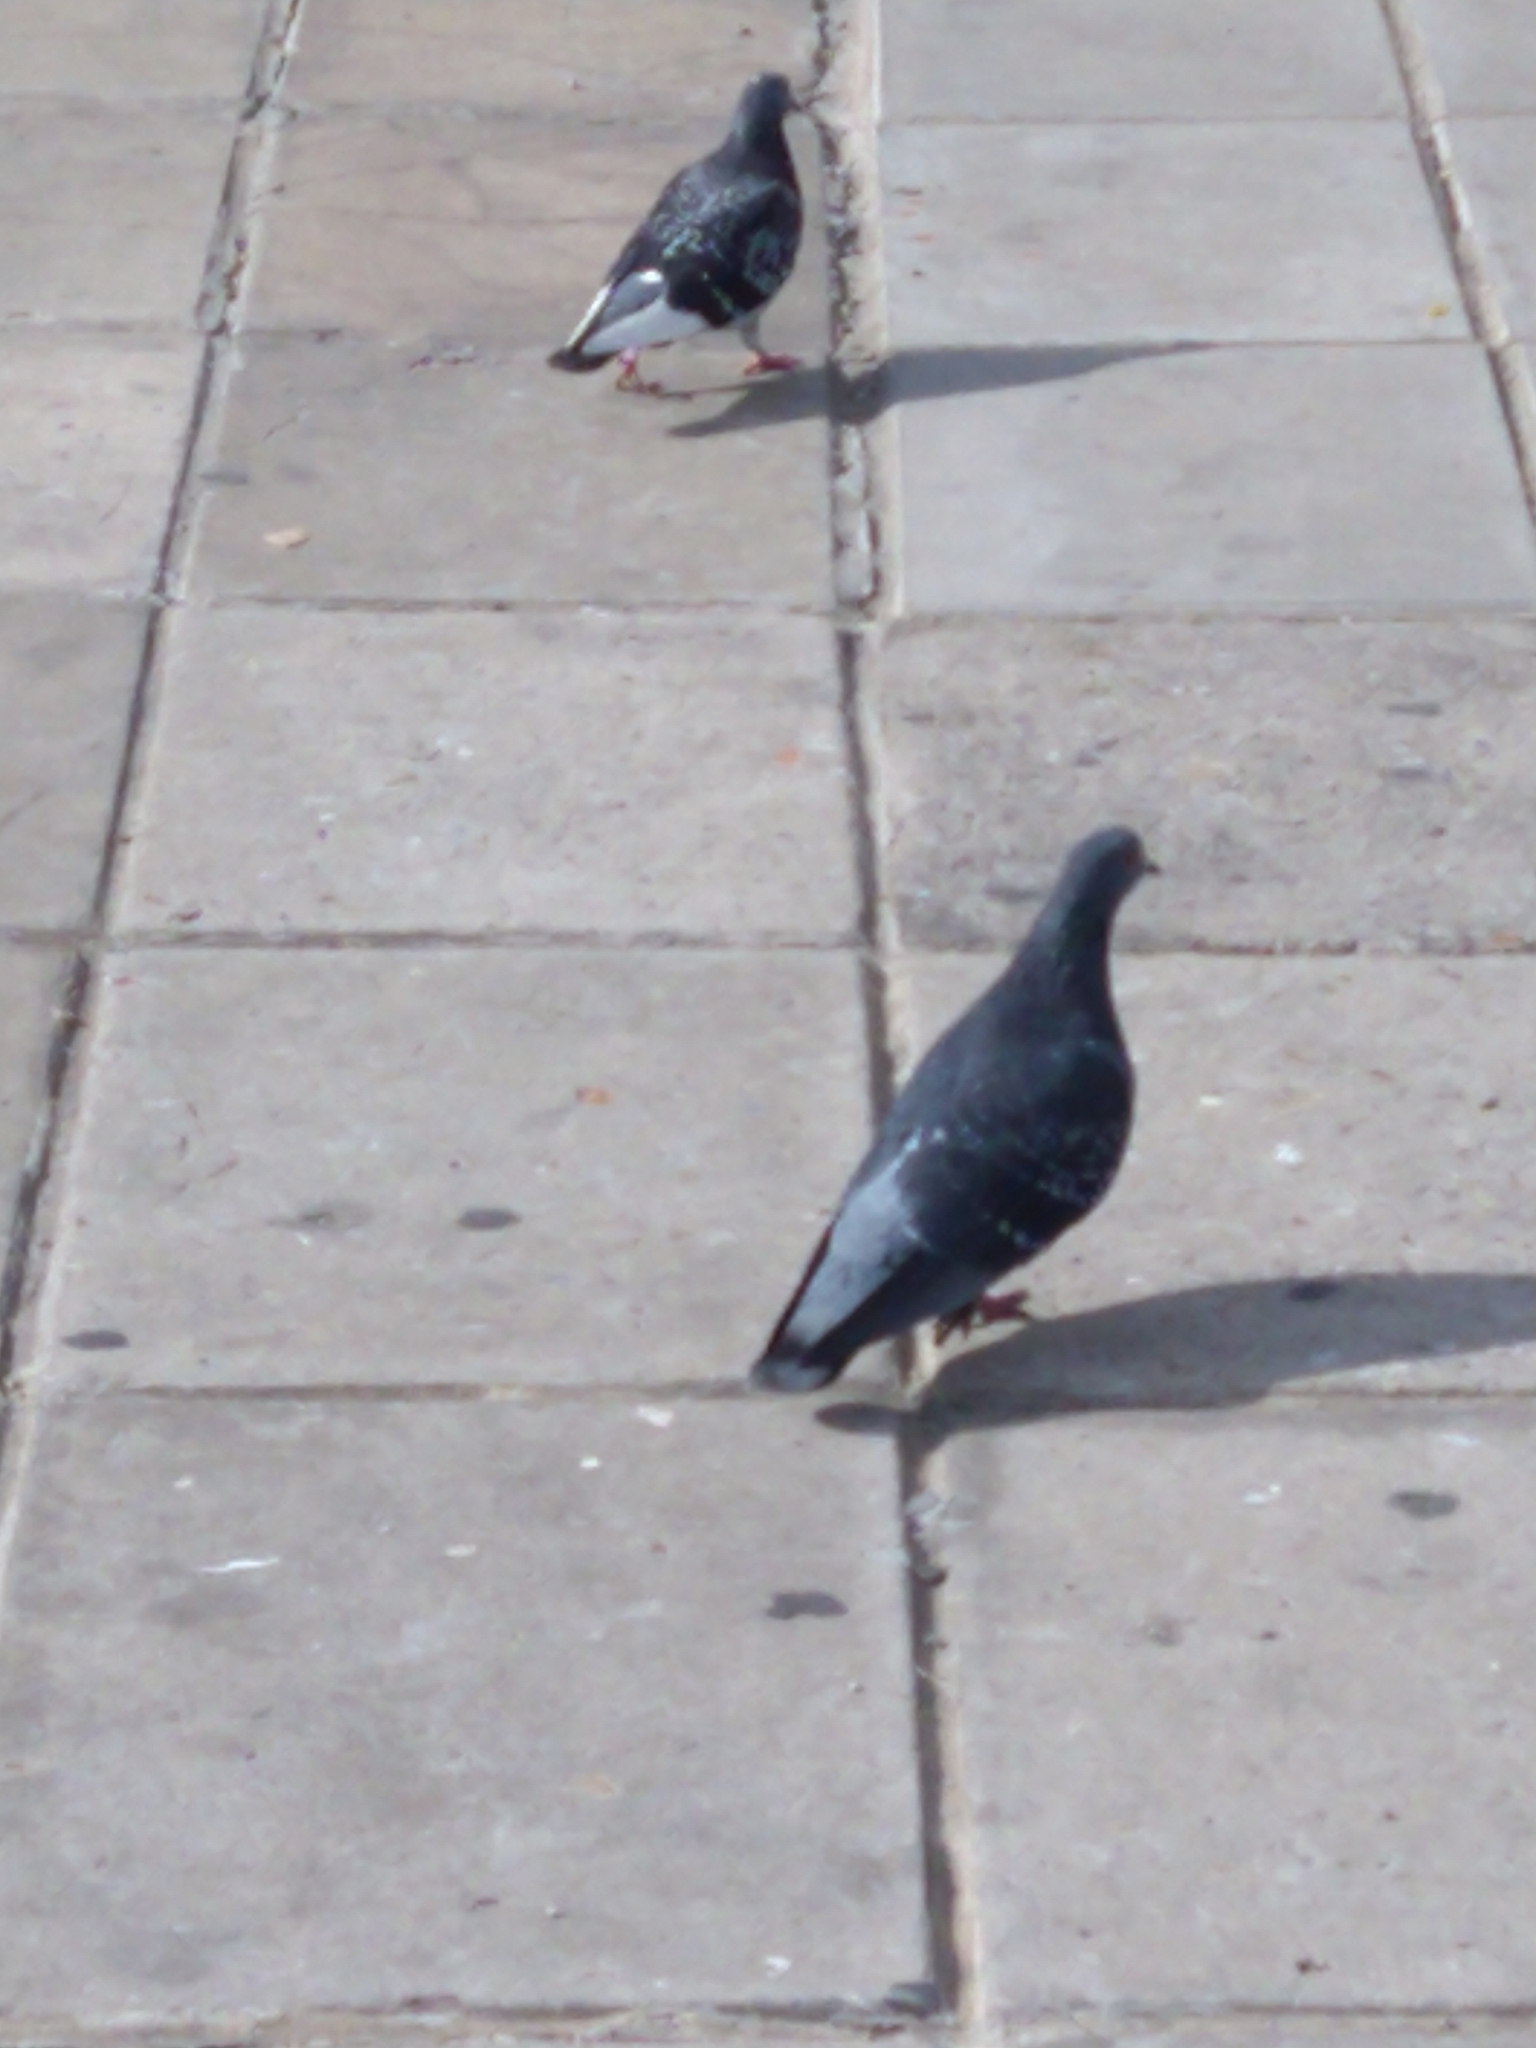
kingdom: Animalia
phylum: Chordata
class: Aves
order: Columbiformes
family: Columbidae
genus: Columba
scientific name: Columba livia
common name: Rock pigeon
